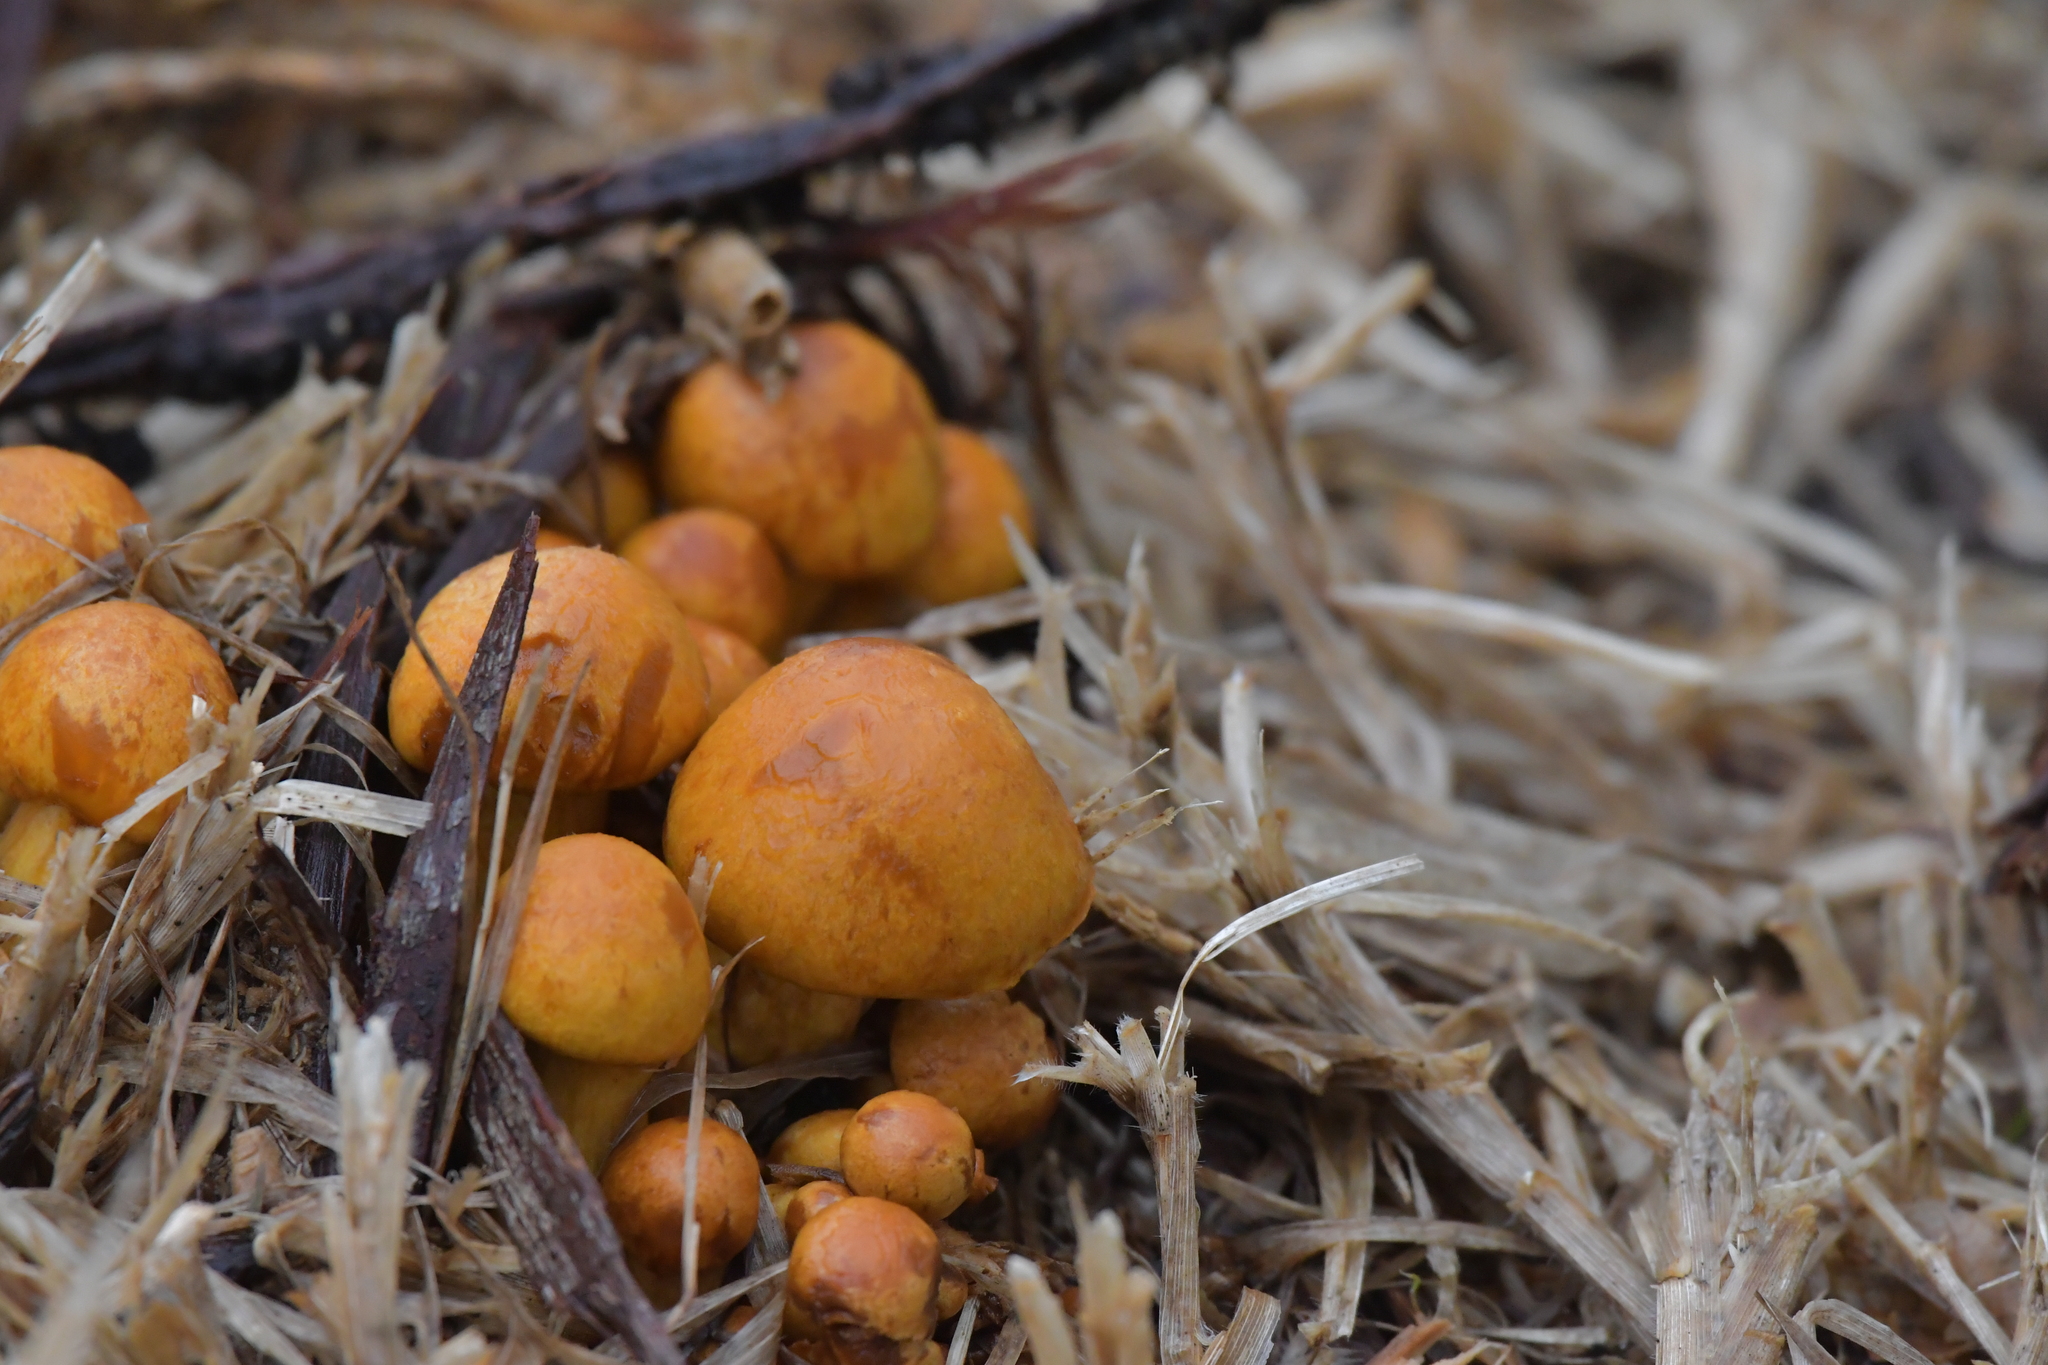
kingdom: Fungi
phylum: Basidiomycota
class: Agaricomycetes
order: Agaricales
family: Hymenogastraceae
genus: Gymnopilus
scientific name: Gymnopilus junonius
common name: Spectacular rustgill
